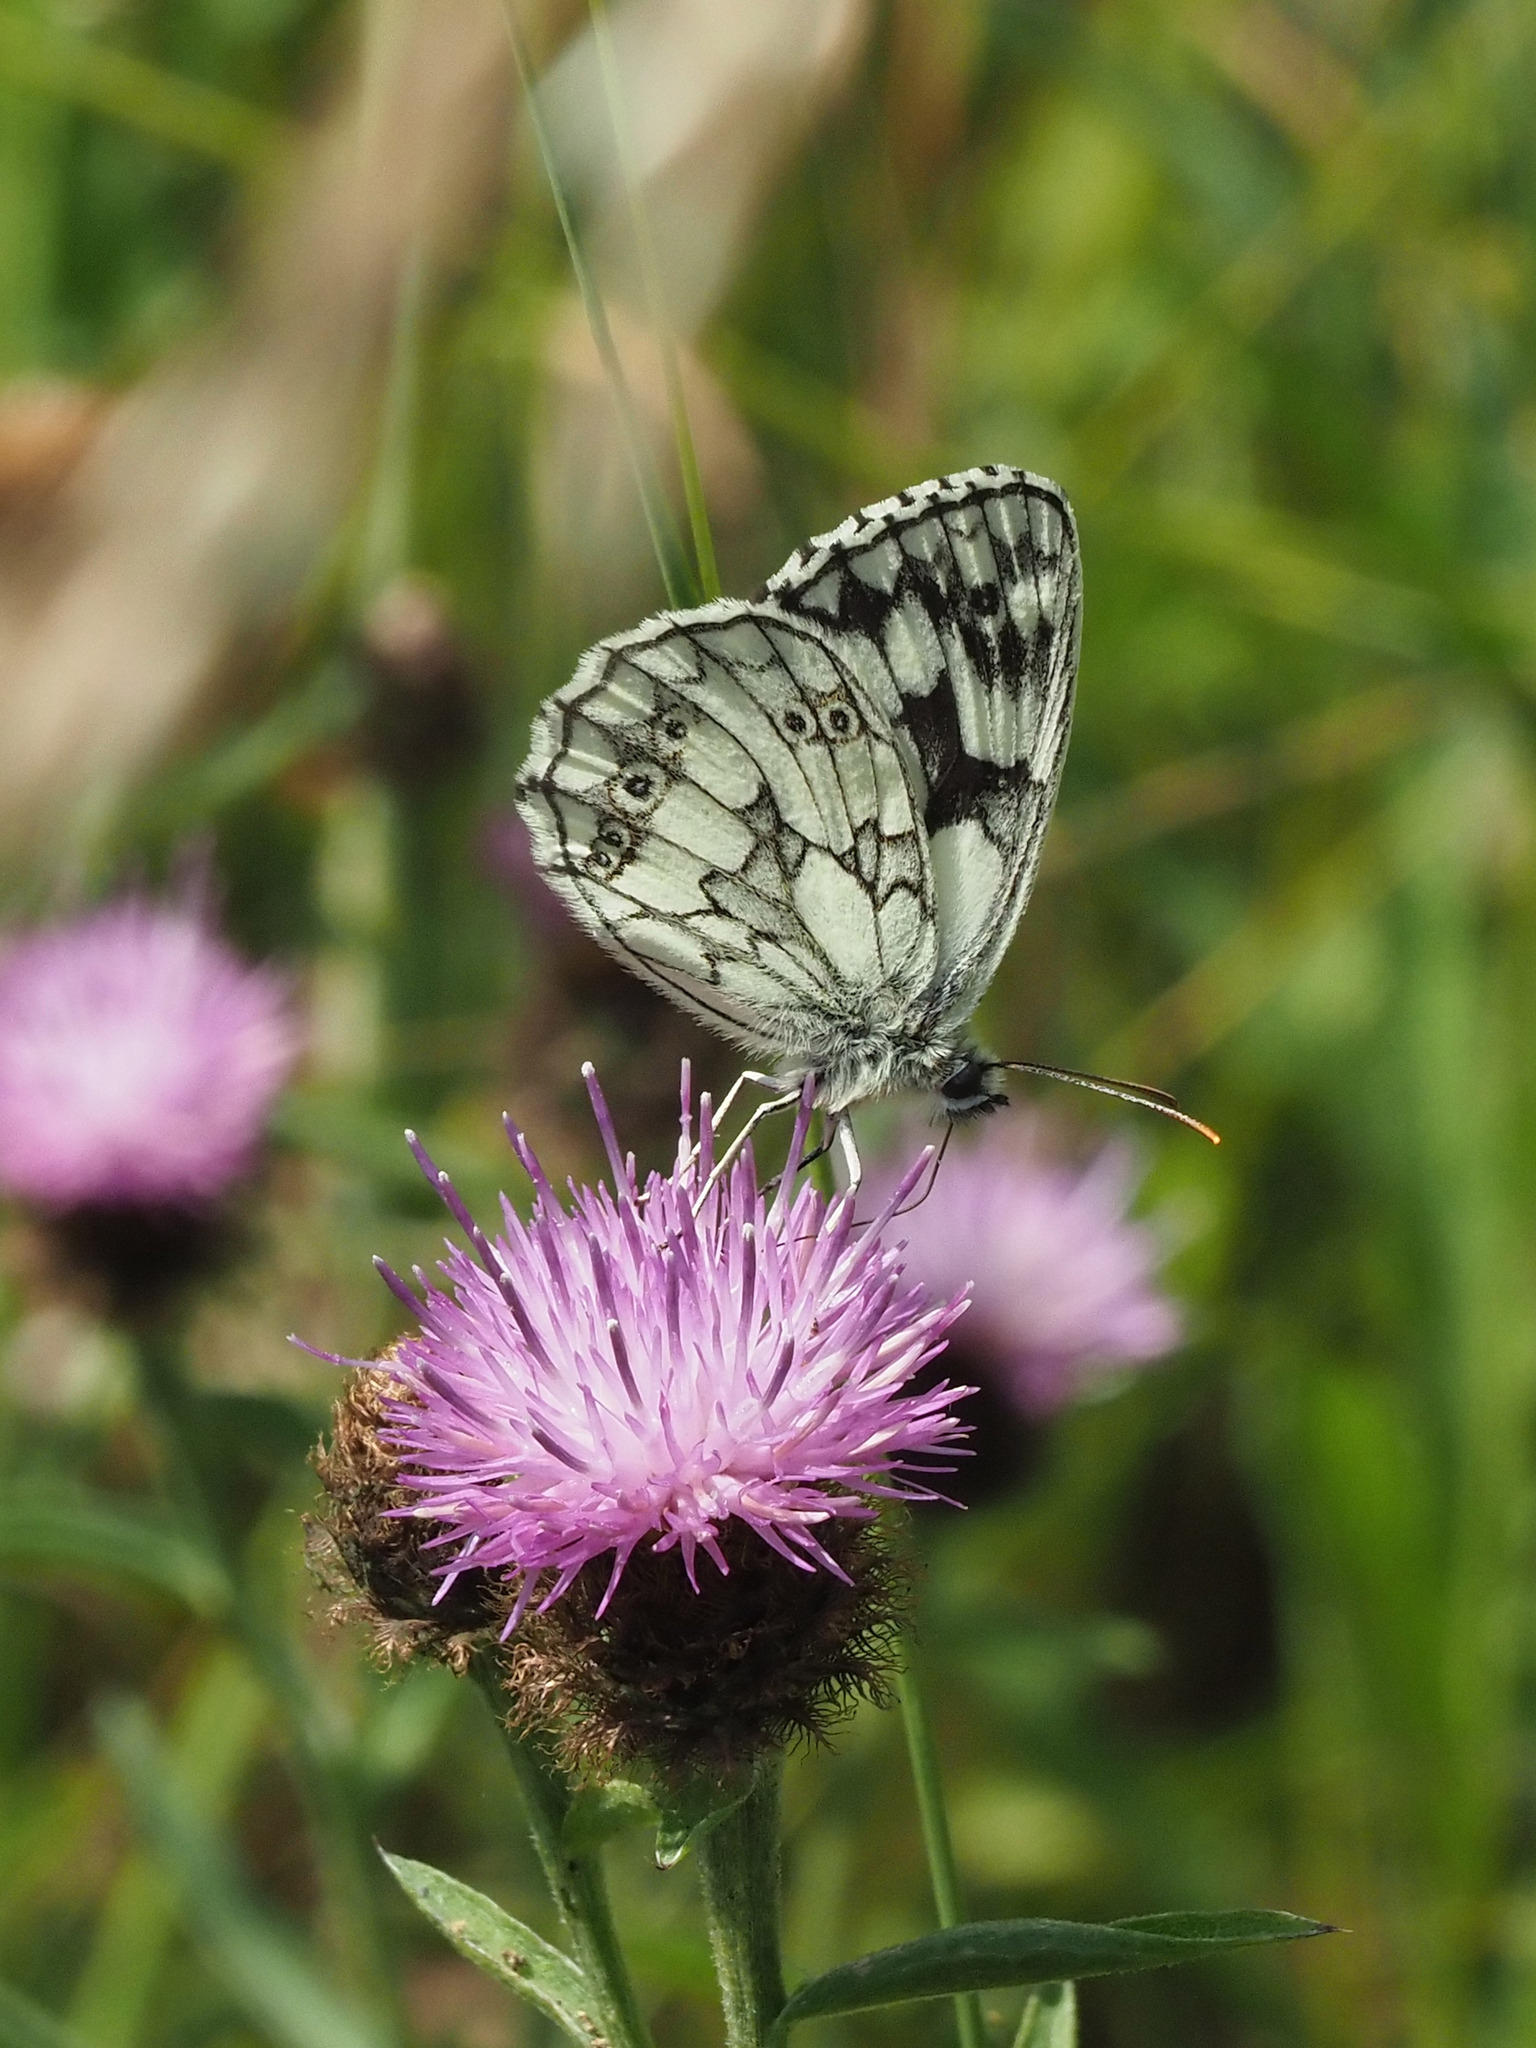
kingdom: Animalia
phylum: Arthropoda
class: Insecta
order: Lepidoptera
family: Nymphalidae
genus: Melanargia
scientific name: Melanargia galathea
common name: Marbled white
